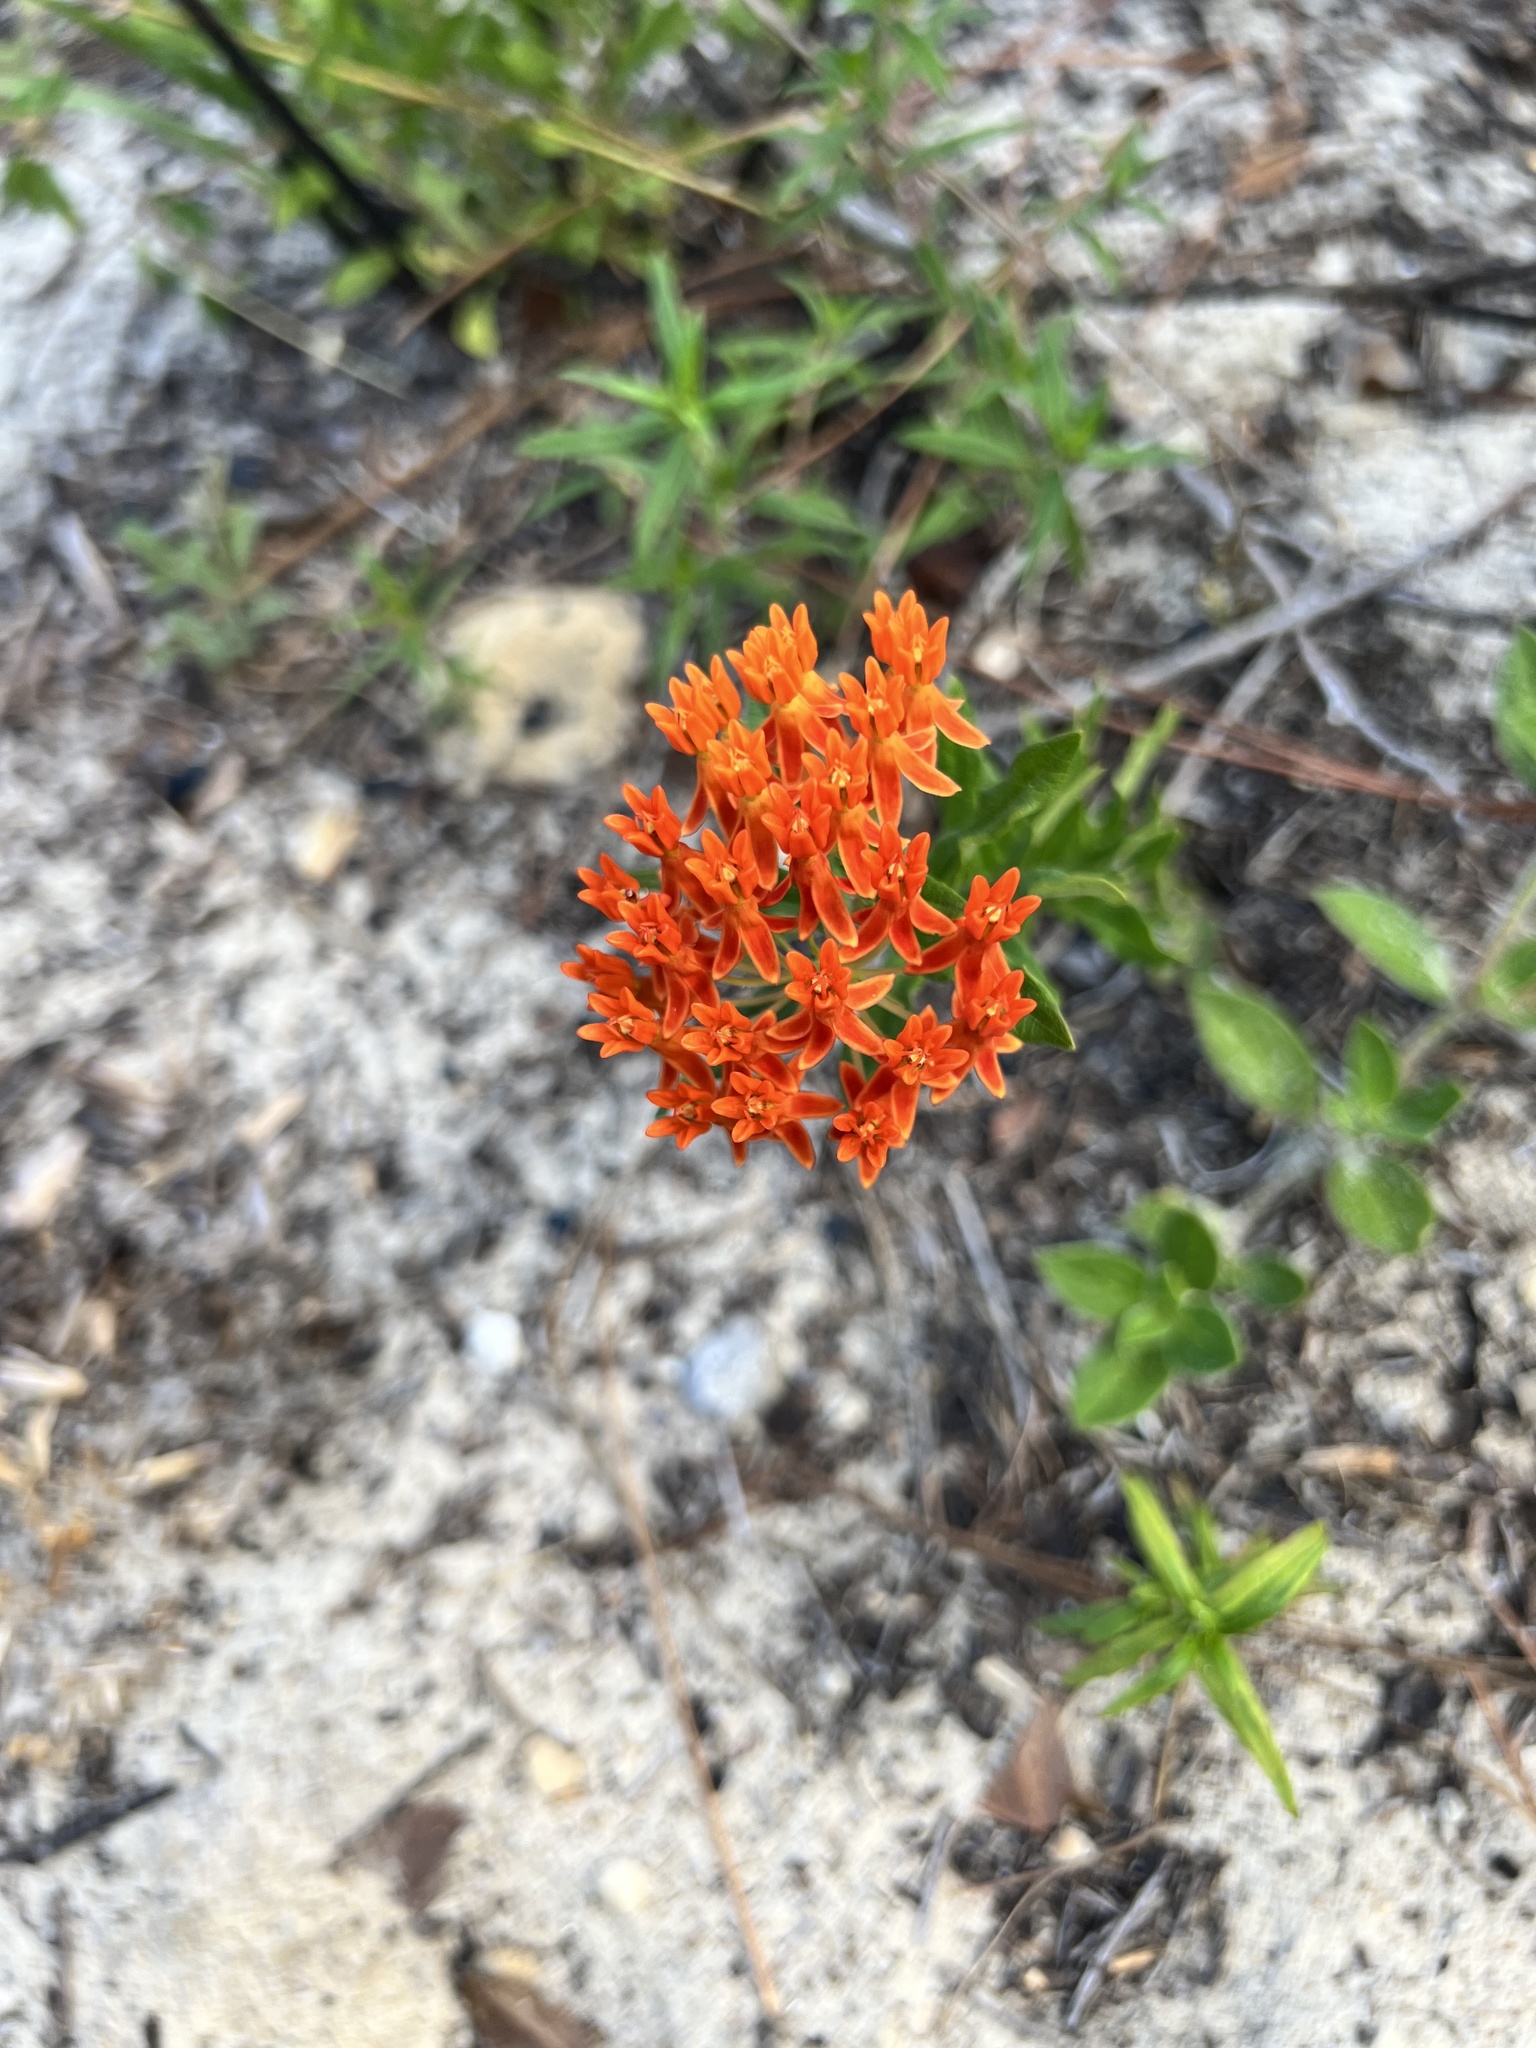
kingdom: Plantae
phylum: Tracheophyta
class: Magnoliopsida
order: Gentianales
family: Apocynaceae
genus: Asclepias
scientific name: Asclepias tuberosa
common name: Butterfly milkweed
